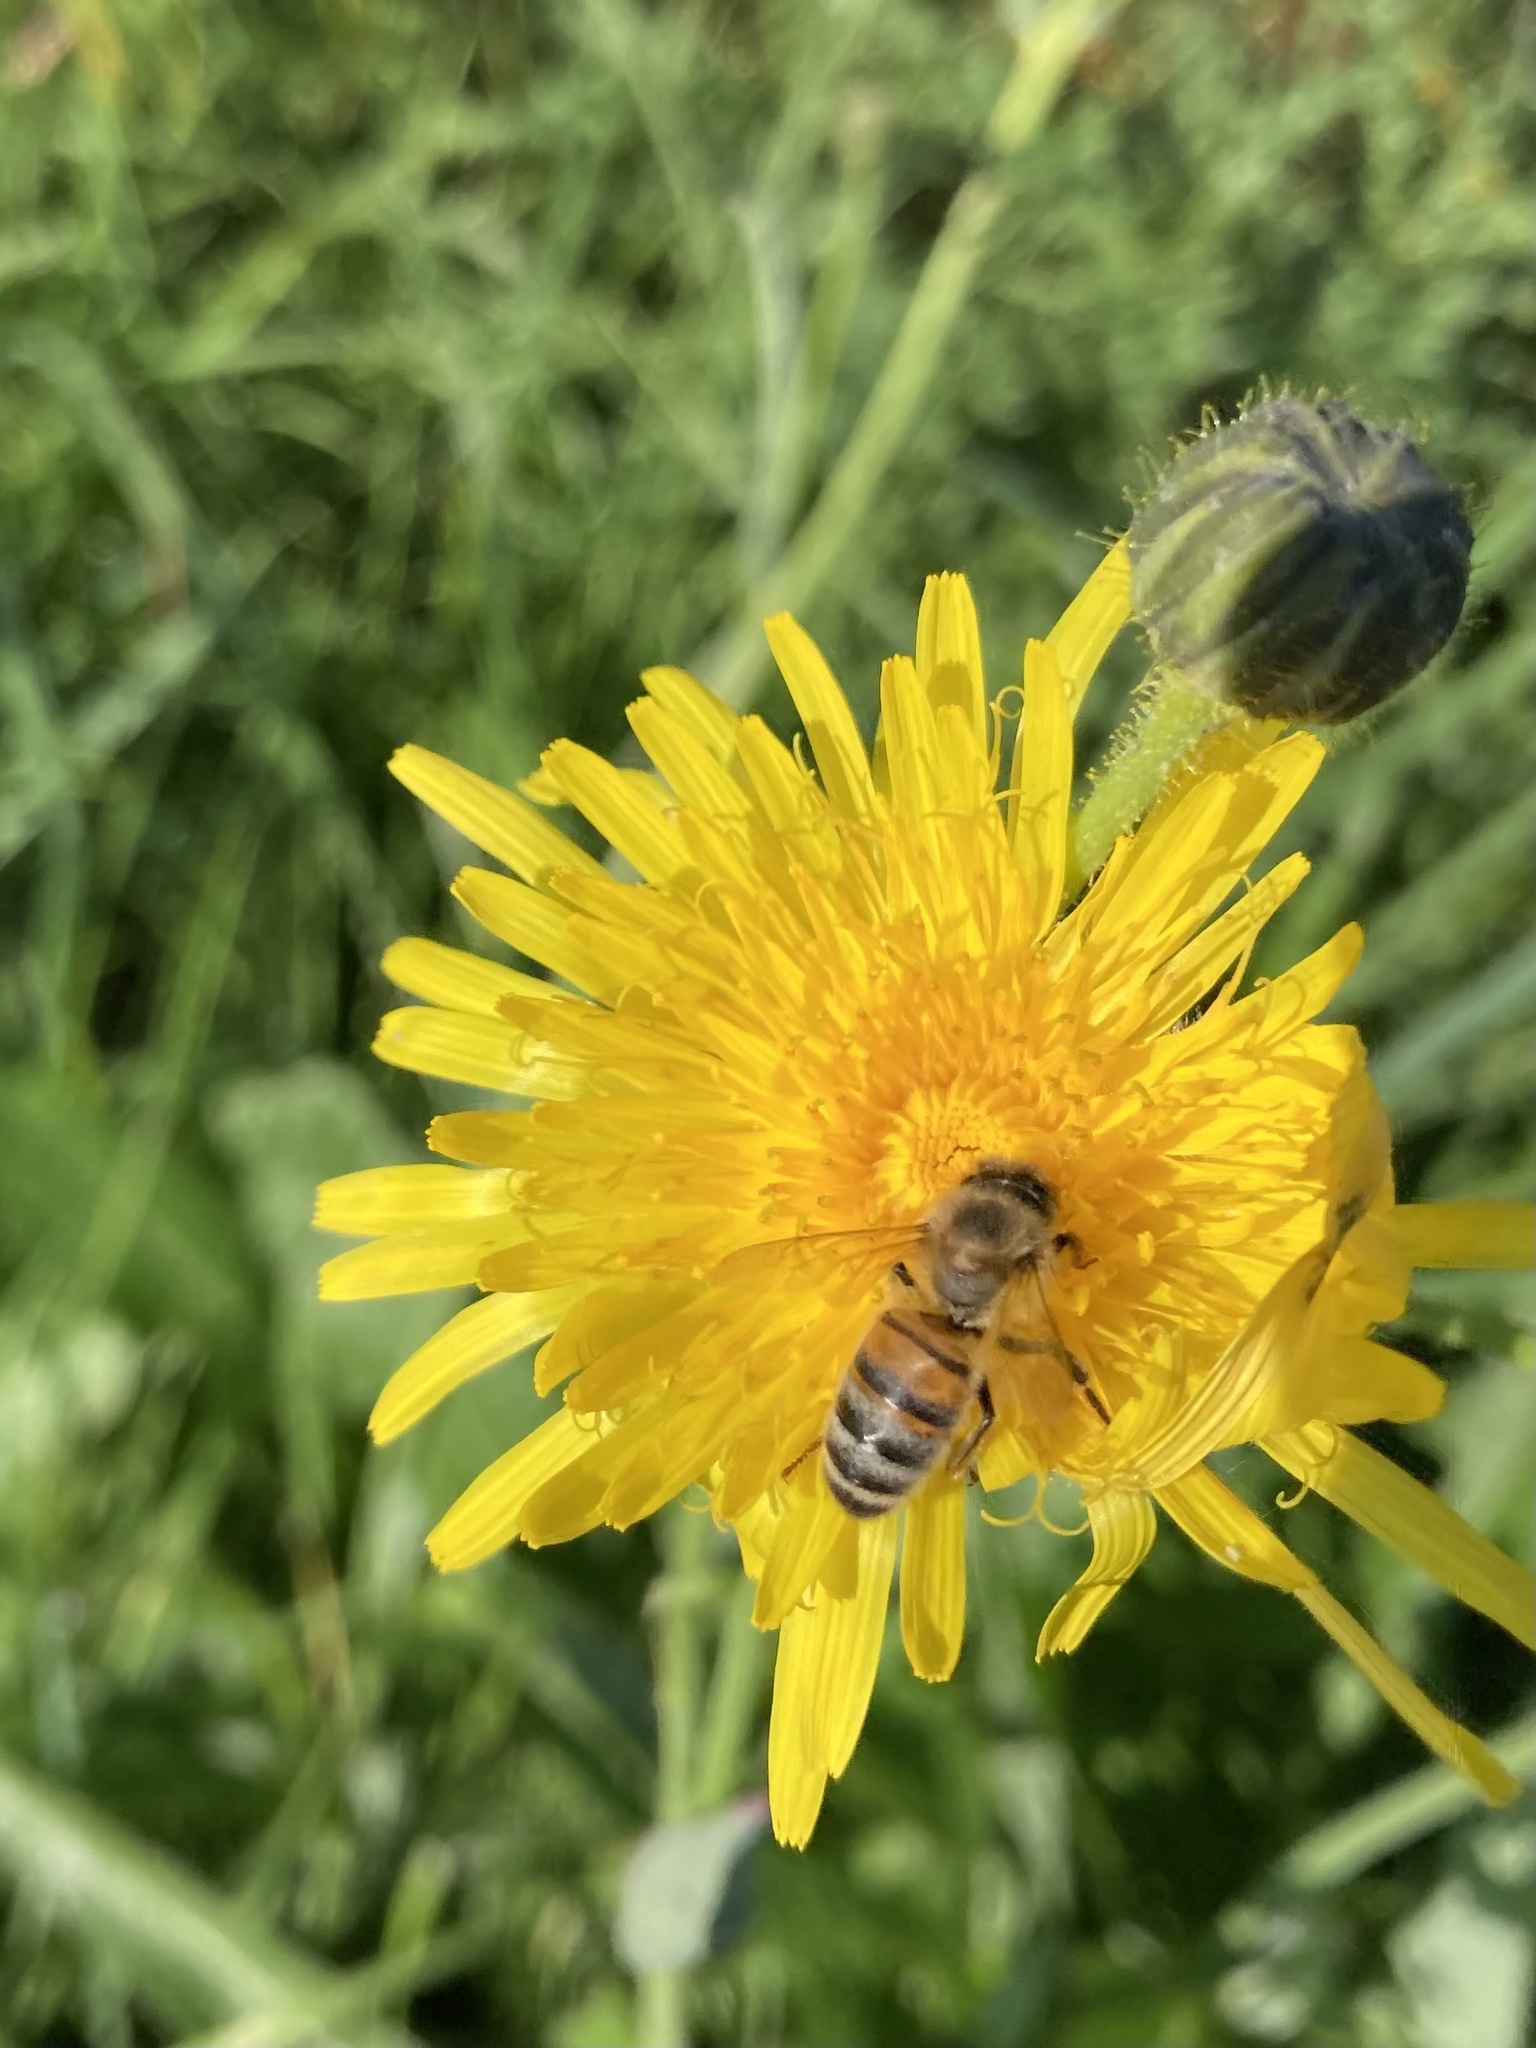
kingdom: Animalia
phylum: Arthropoda
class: Insecta
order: Hymenoptera
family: Apidae
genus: Apis
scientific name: Apis mellifera
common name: Honey bee
